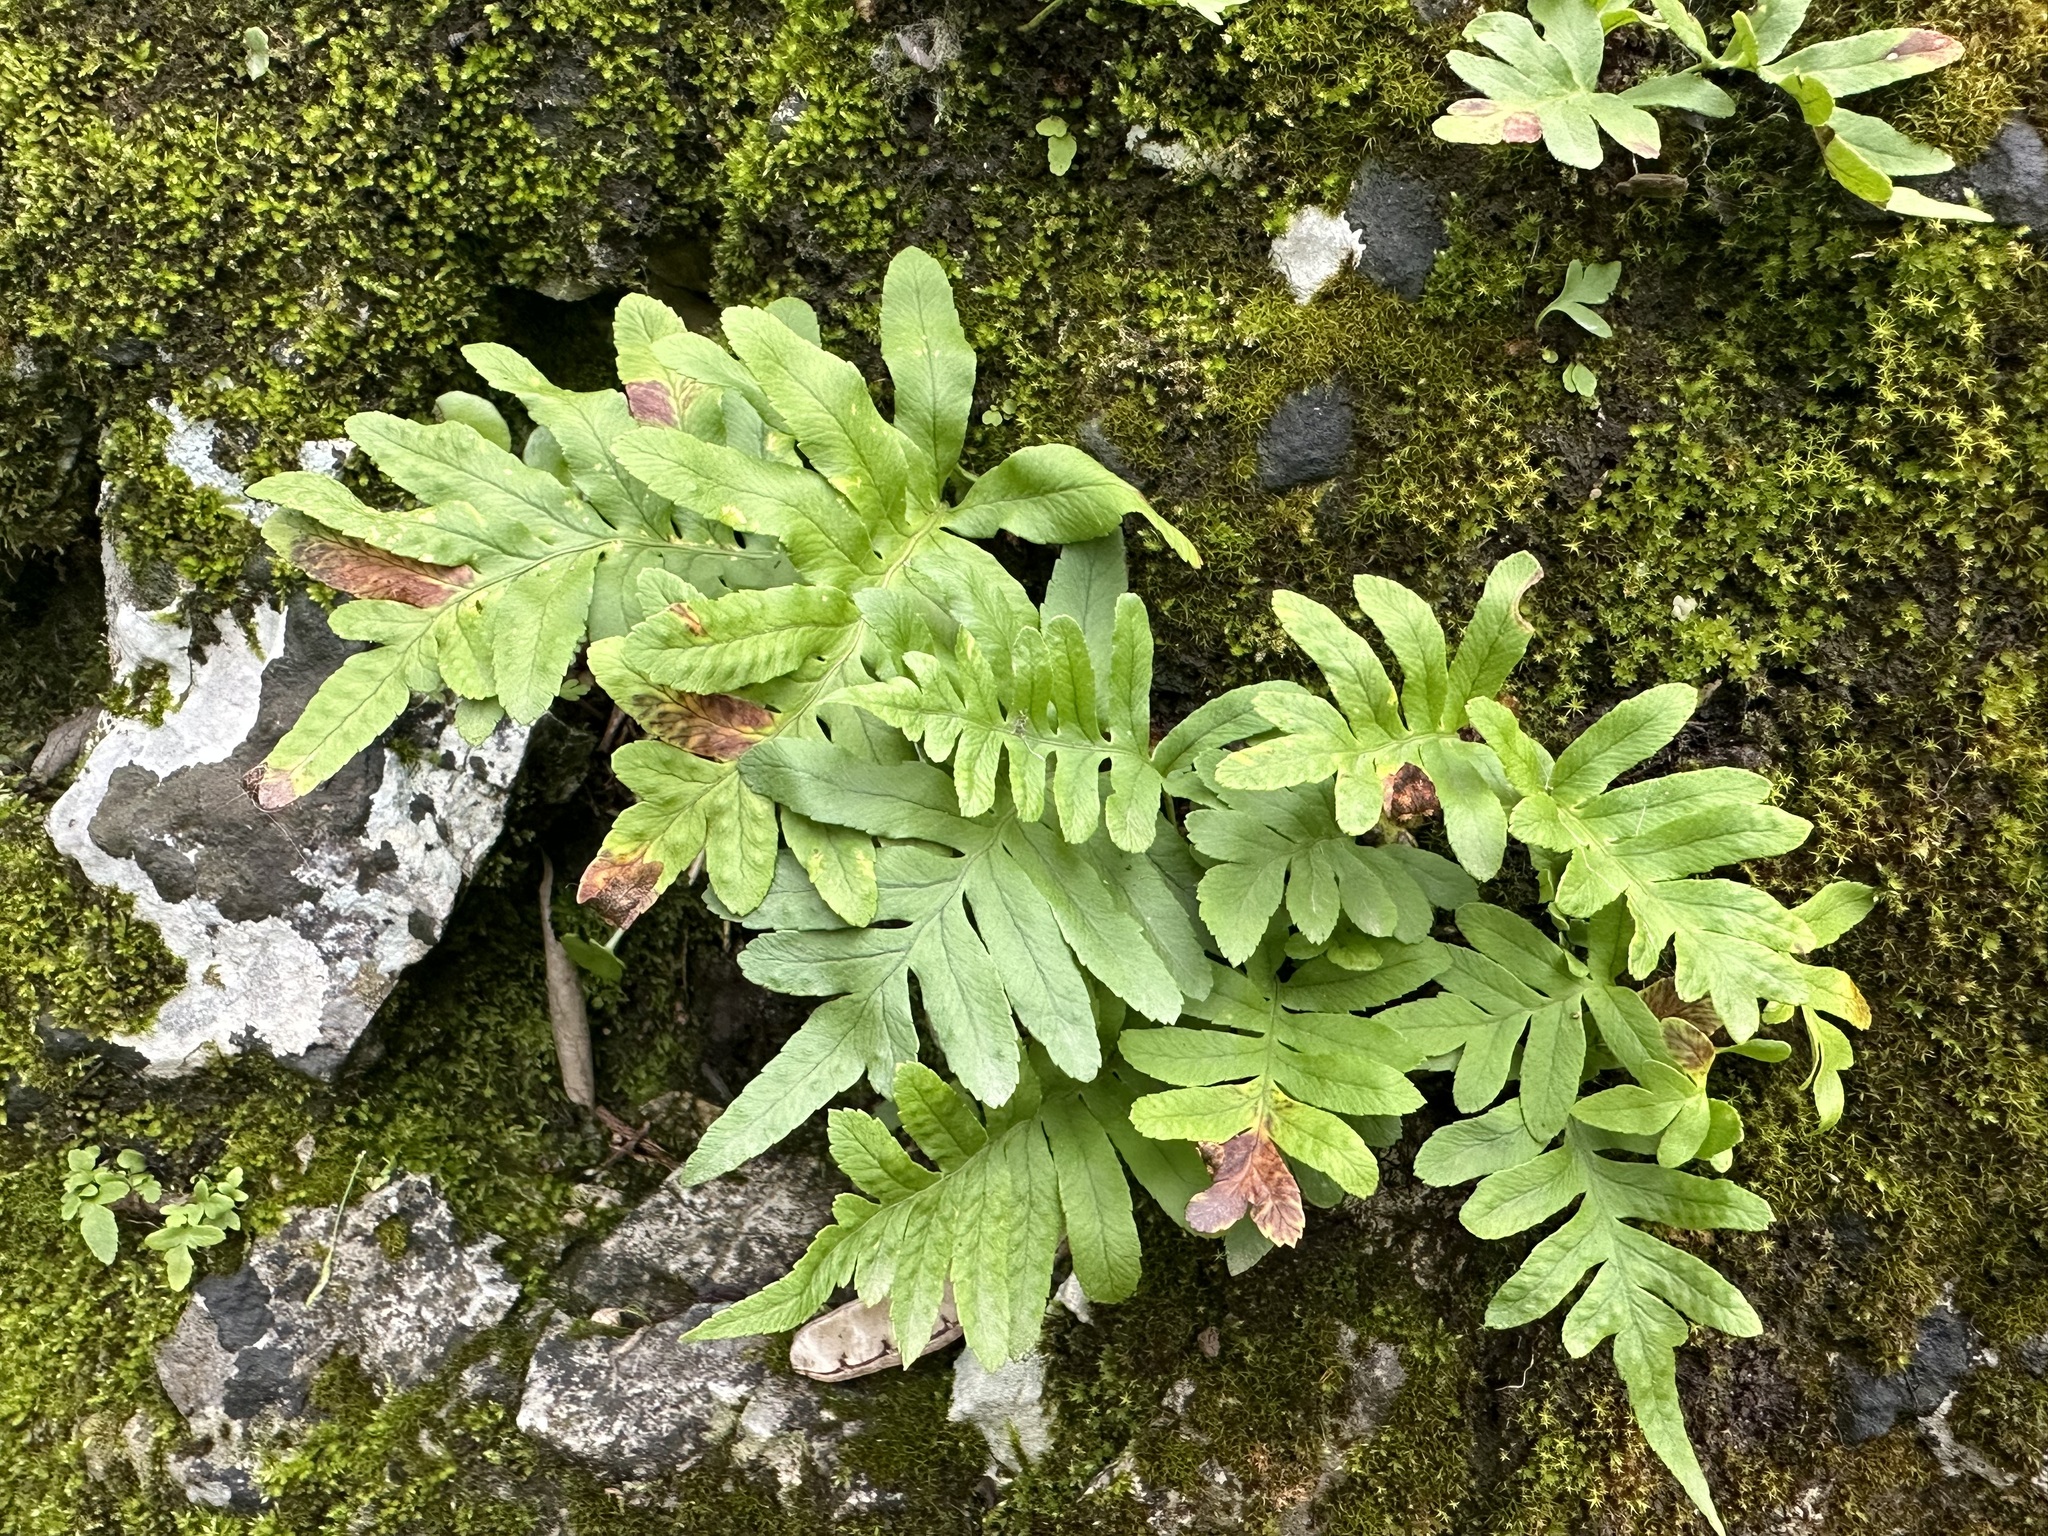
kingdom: Plantae
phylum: Tracheophyta
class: Polypodiopsida
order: Polypodiales
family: Polypodiaceae
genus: Polypodium
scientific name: Polypodium cambricum
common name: Southern polypody
